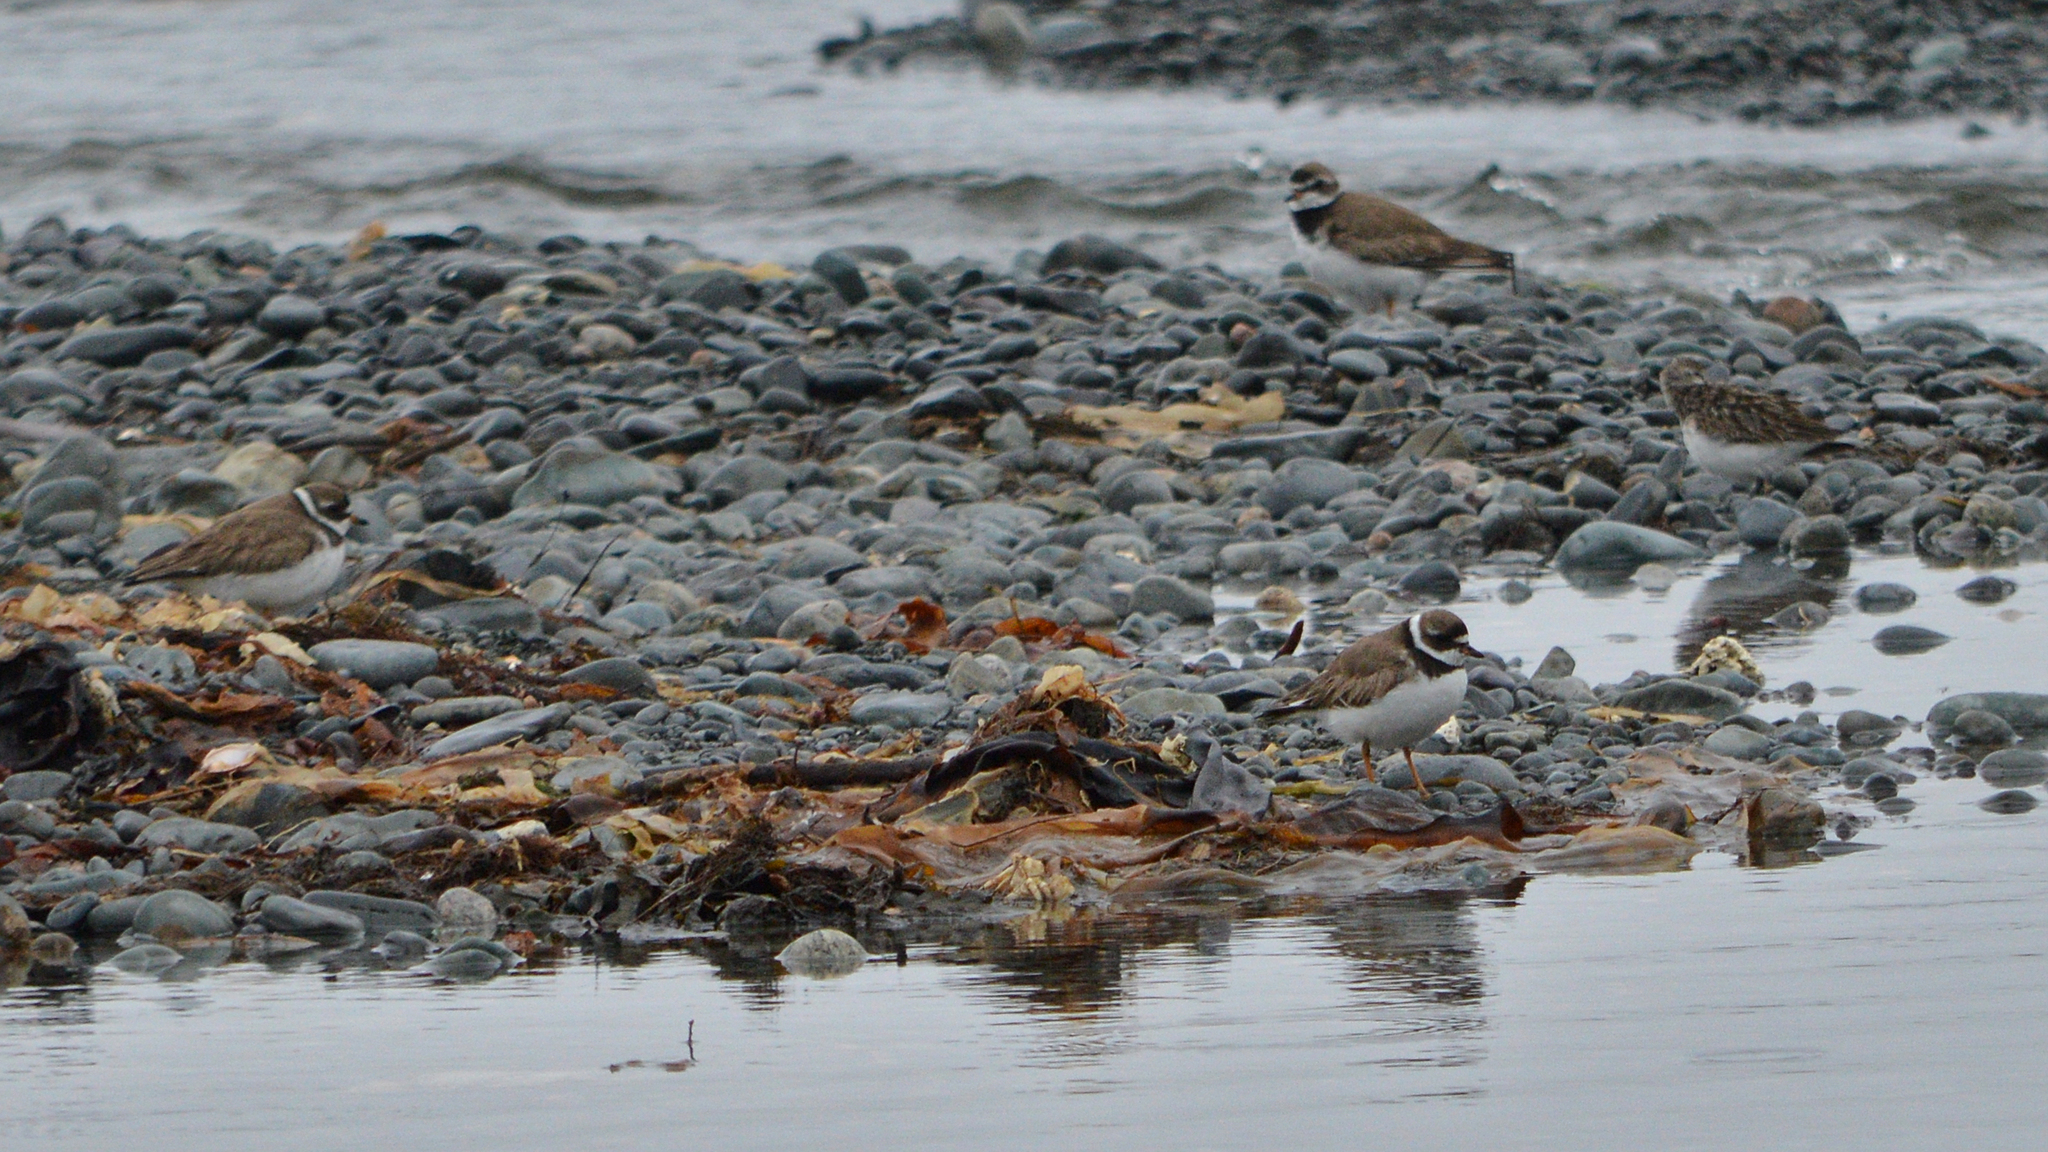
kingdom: Animalia
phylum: Chordata
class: Aves
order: Charadriiformes
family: Charadriidae
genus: Charadrius
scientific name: Charadrius semipalmatus
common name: Semipalmated plover
